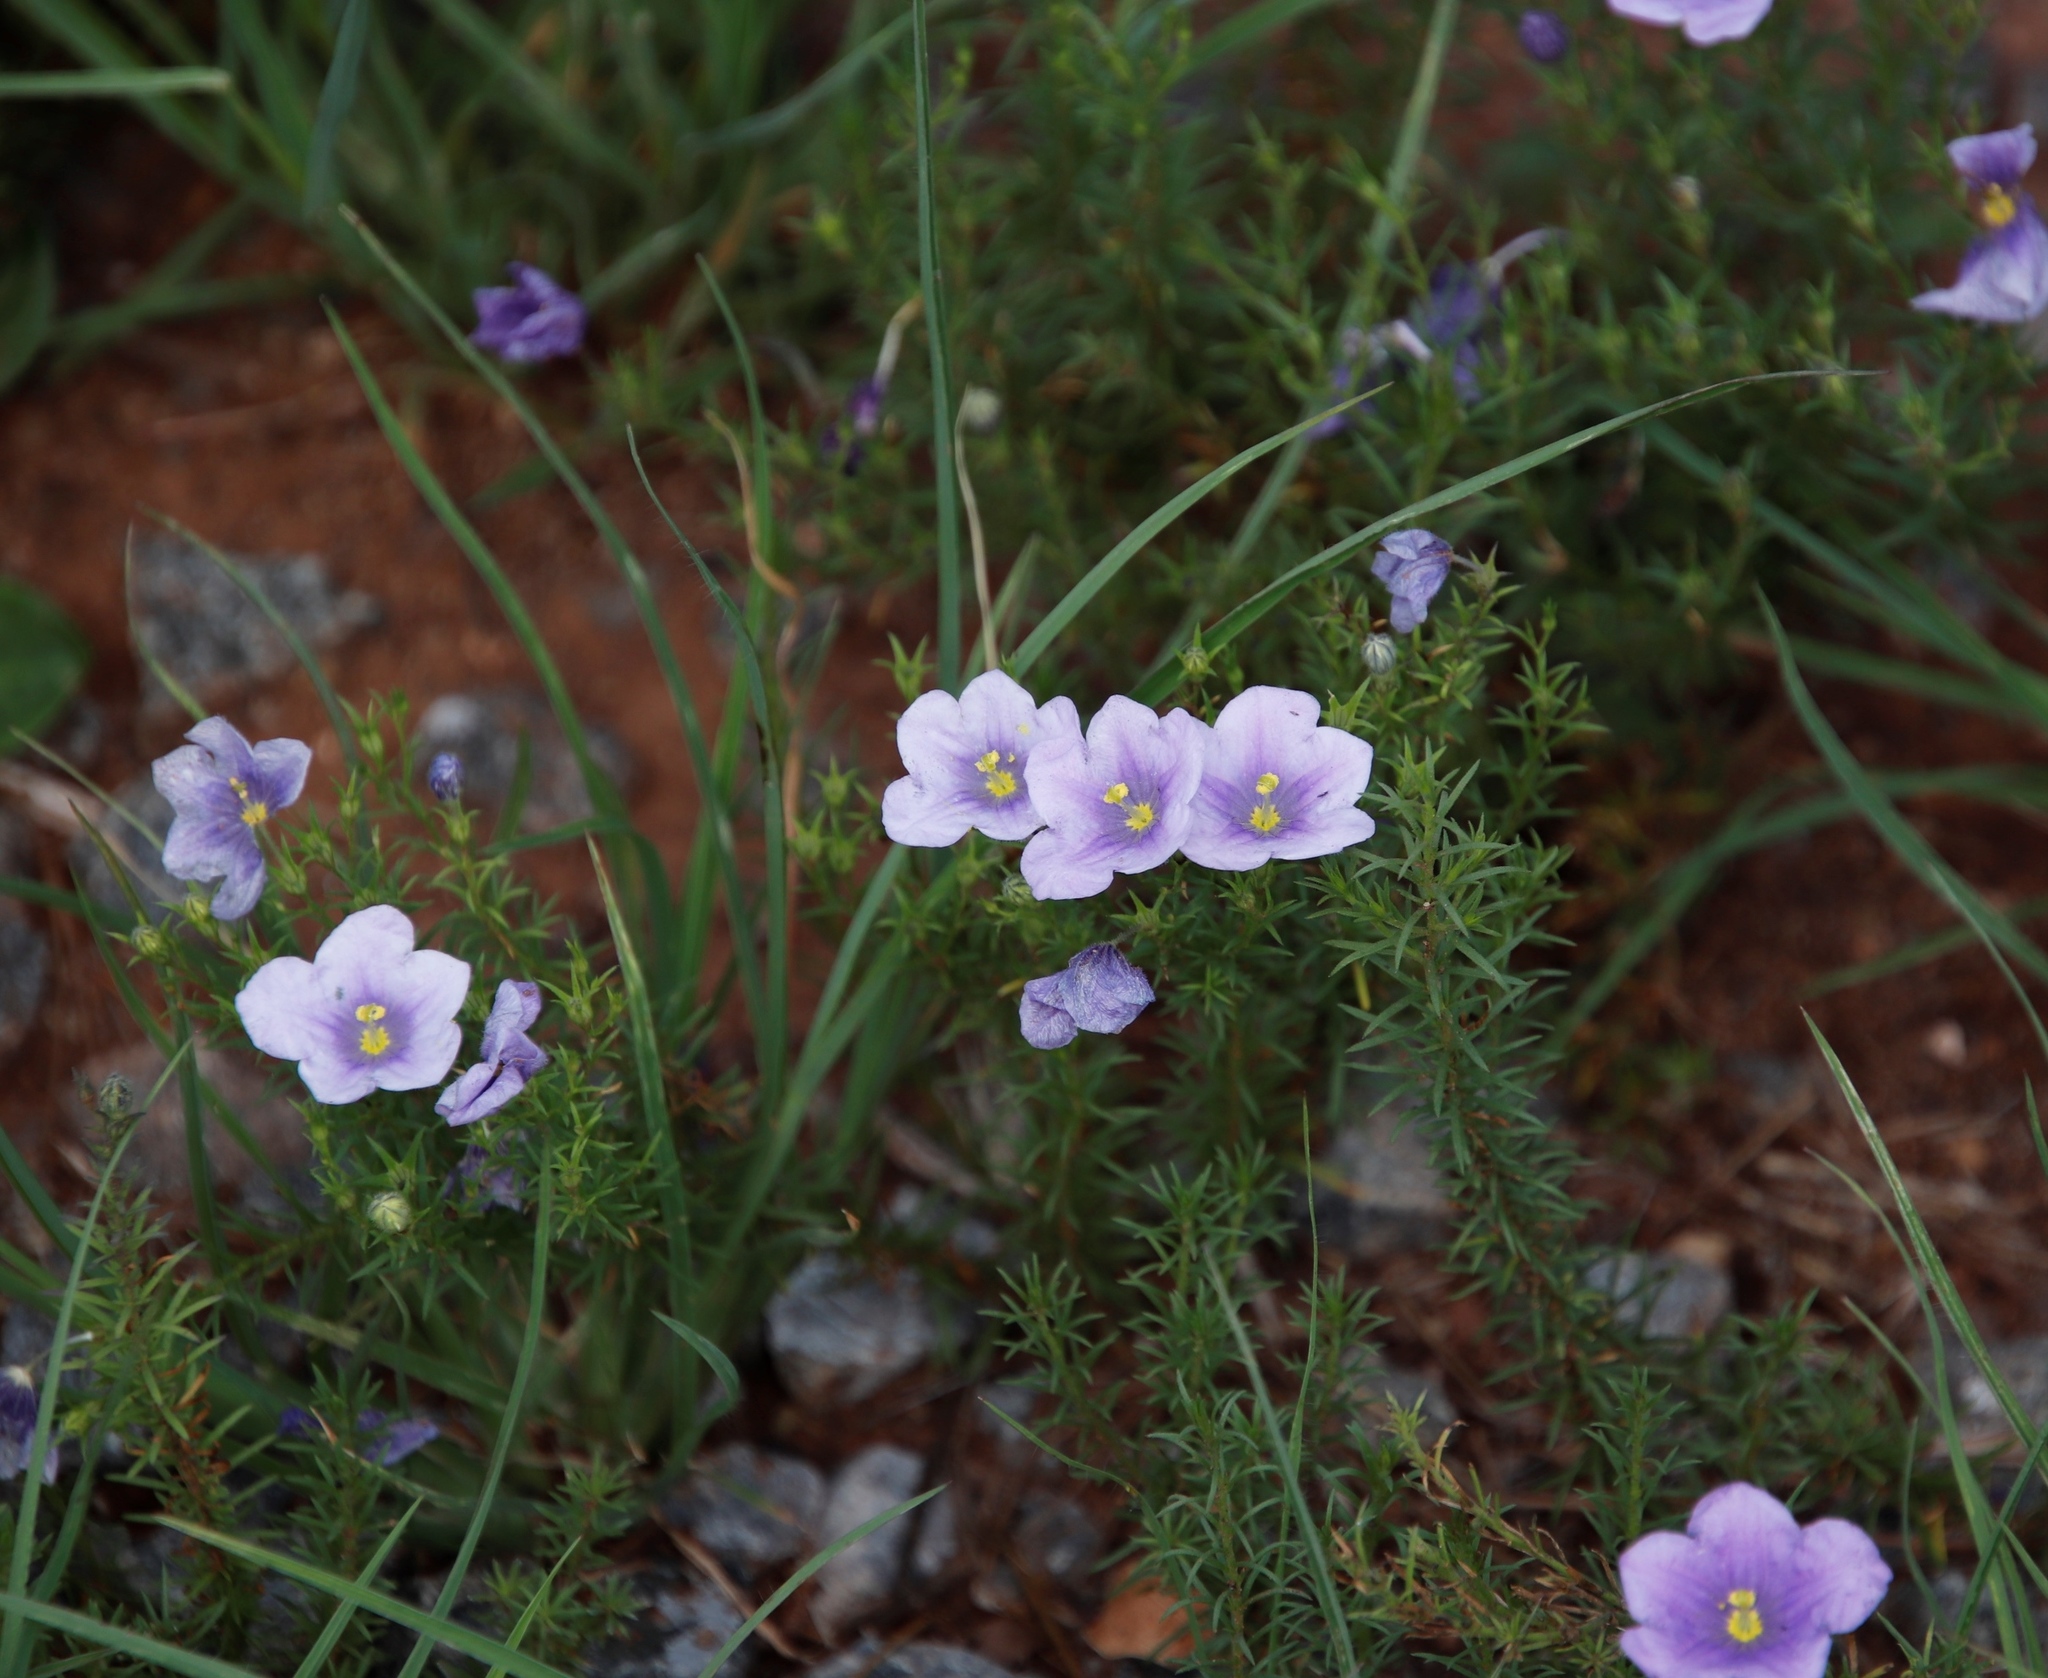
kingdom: Plantae
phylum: Tracheophyta
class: Magnoliopsida
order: Solanales
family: Solanaceae
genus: Nierembergia
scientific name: Nierembergia linariifolia
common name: Dwarf cupflower
